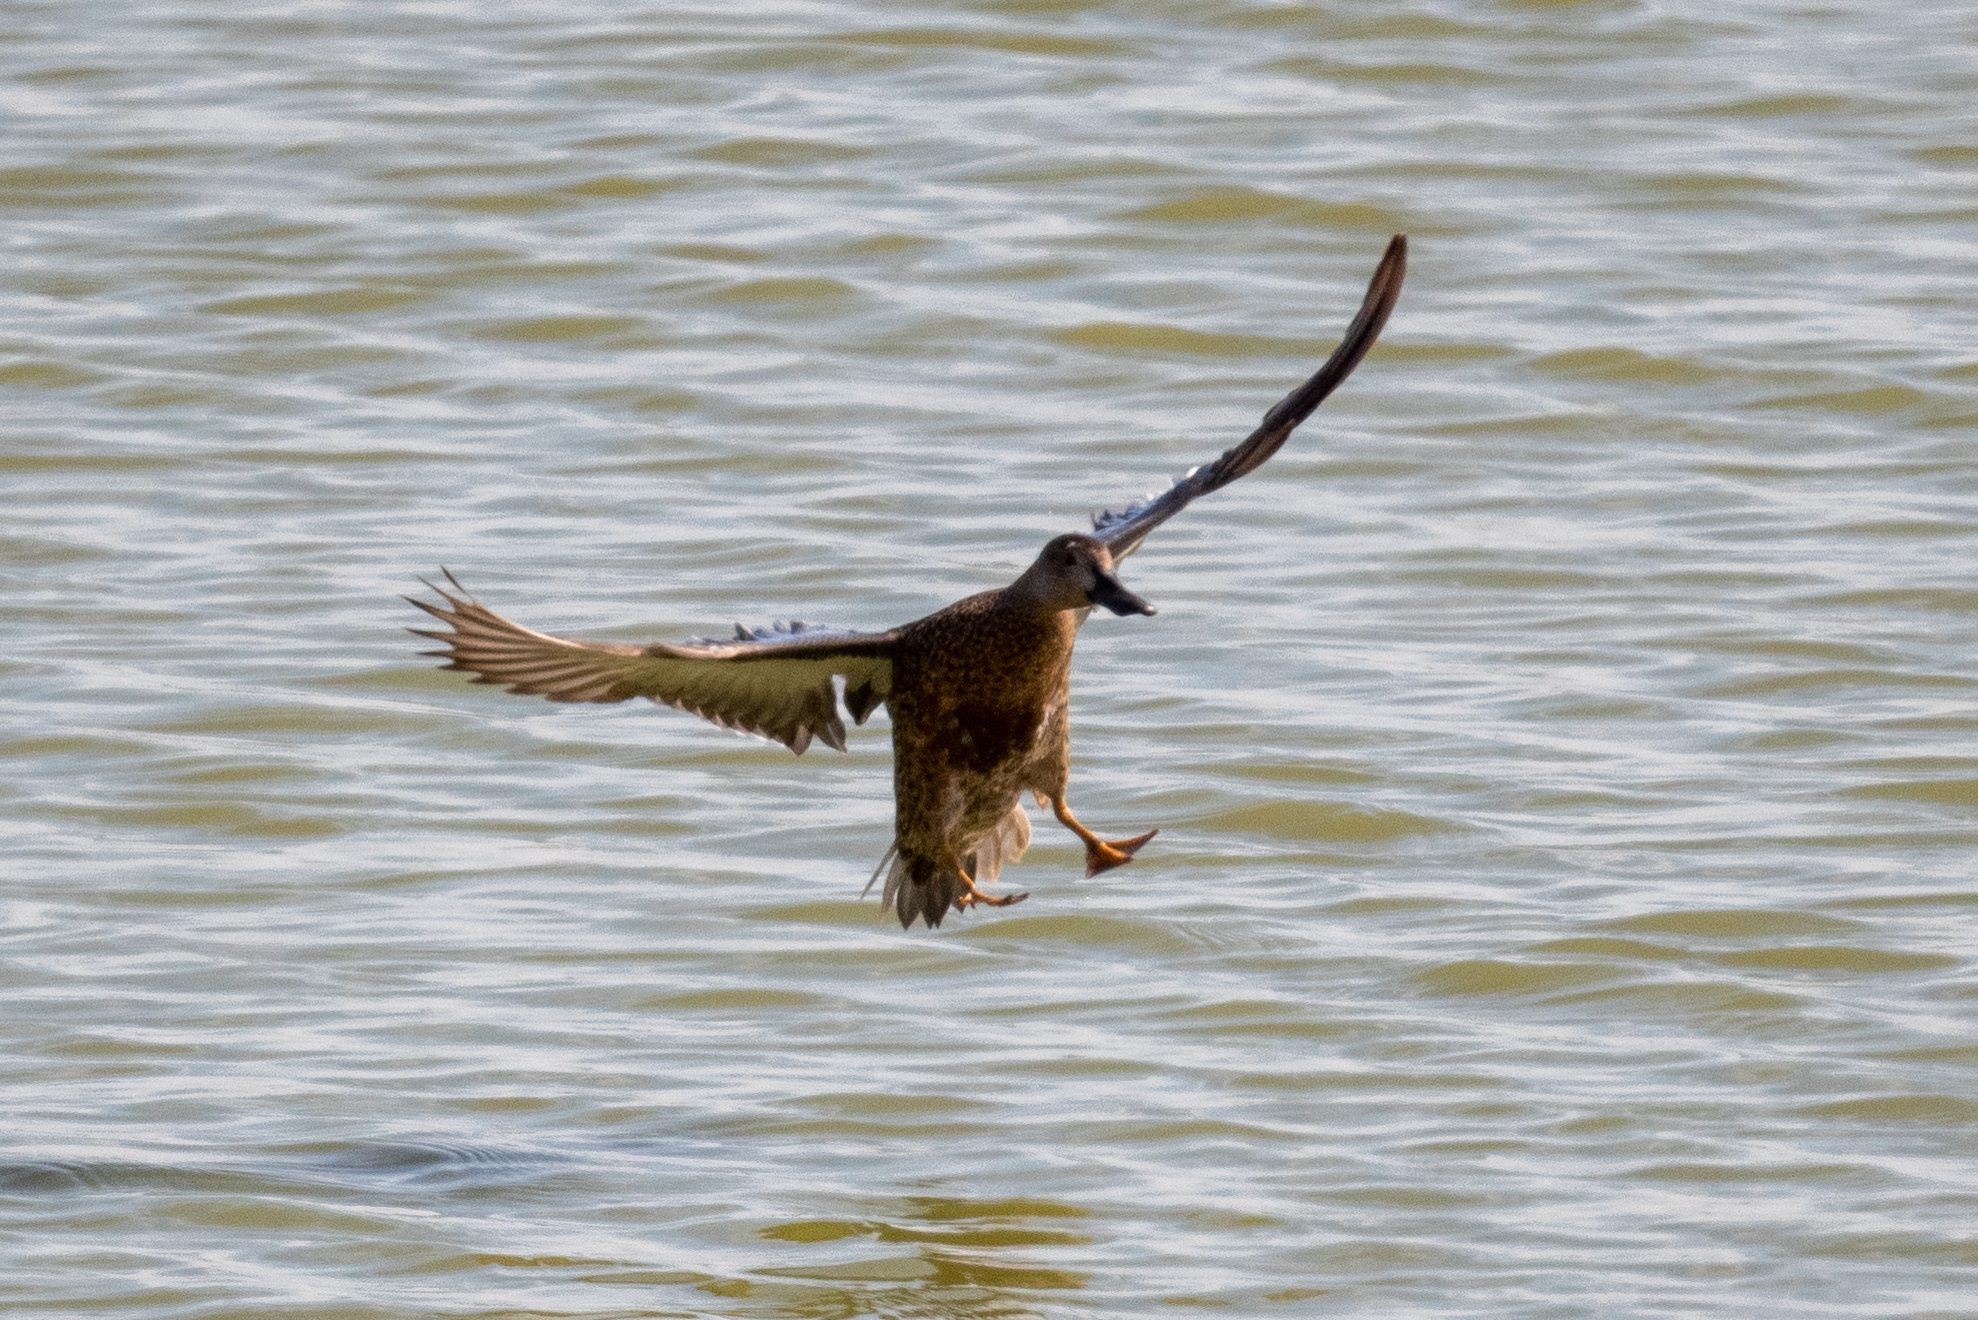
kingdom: Animalia
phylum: Chordata
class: Aves
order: Anseriformes
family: Anatidae
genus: Spatula
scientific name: Spatula cyanoptera
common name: Cinnamon teal
